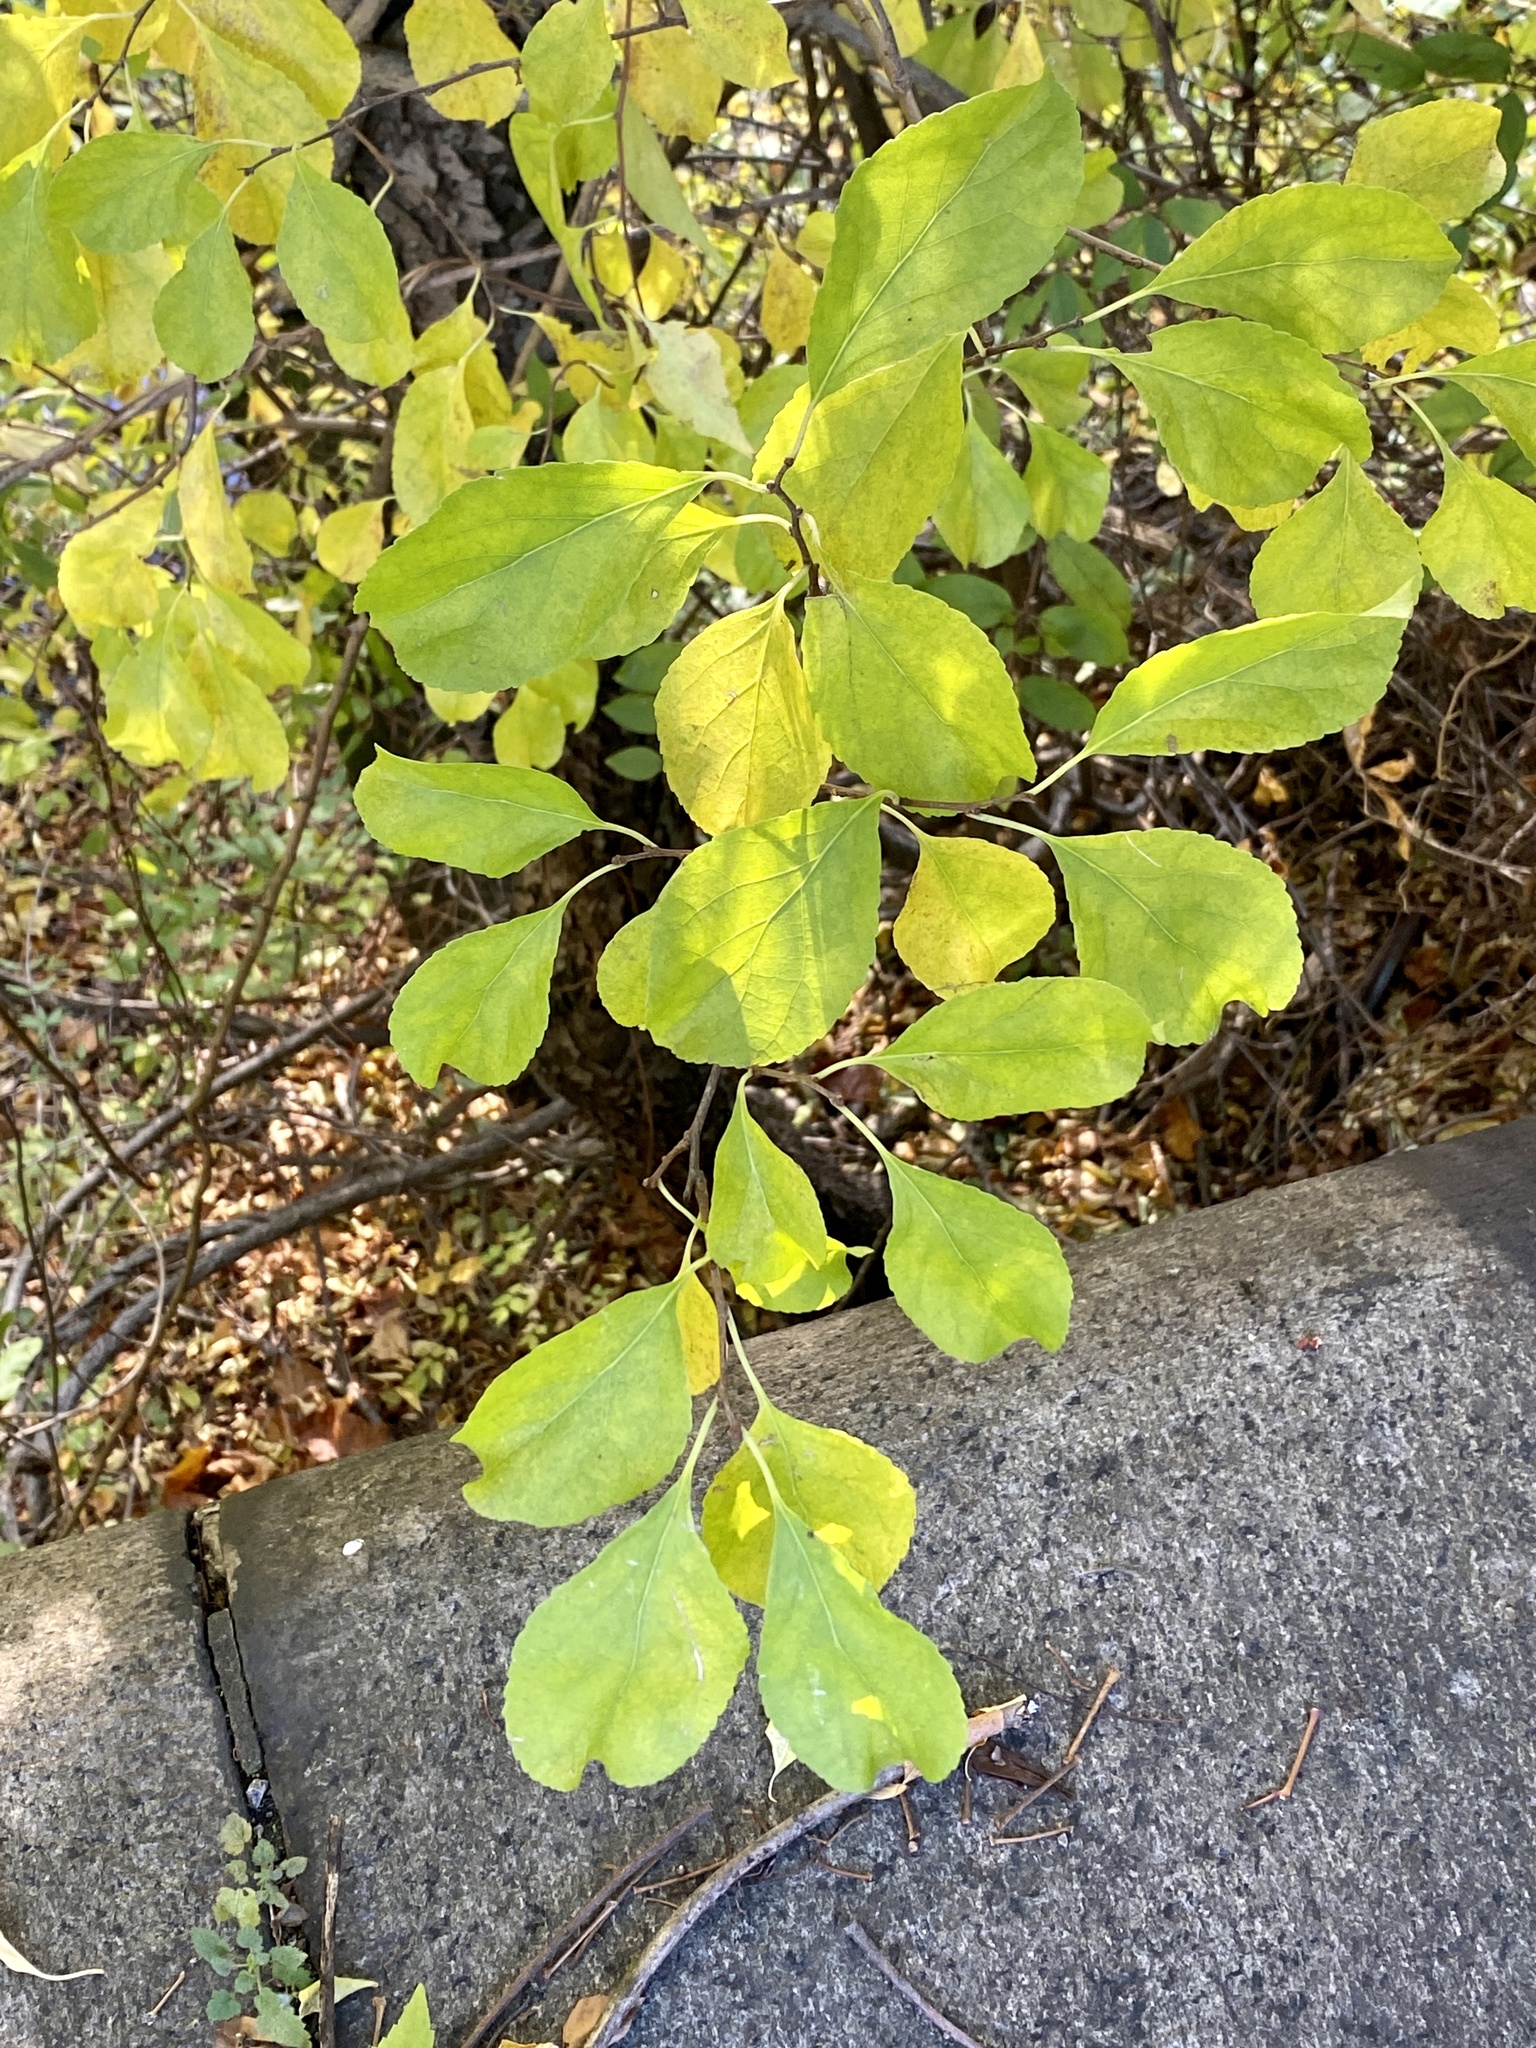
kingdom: Plantae
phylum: Tracheophyta
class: Magnoliopsida
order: Celastrales
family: Celastraceae
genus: Celastrus
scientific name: Celastrus orbiculatus
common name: Oriental bittersweet
